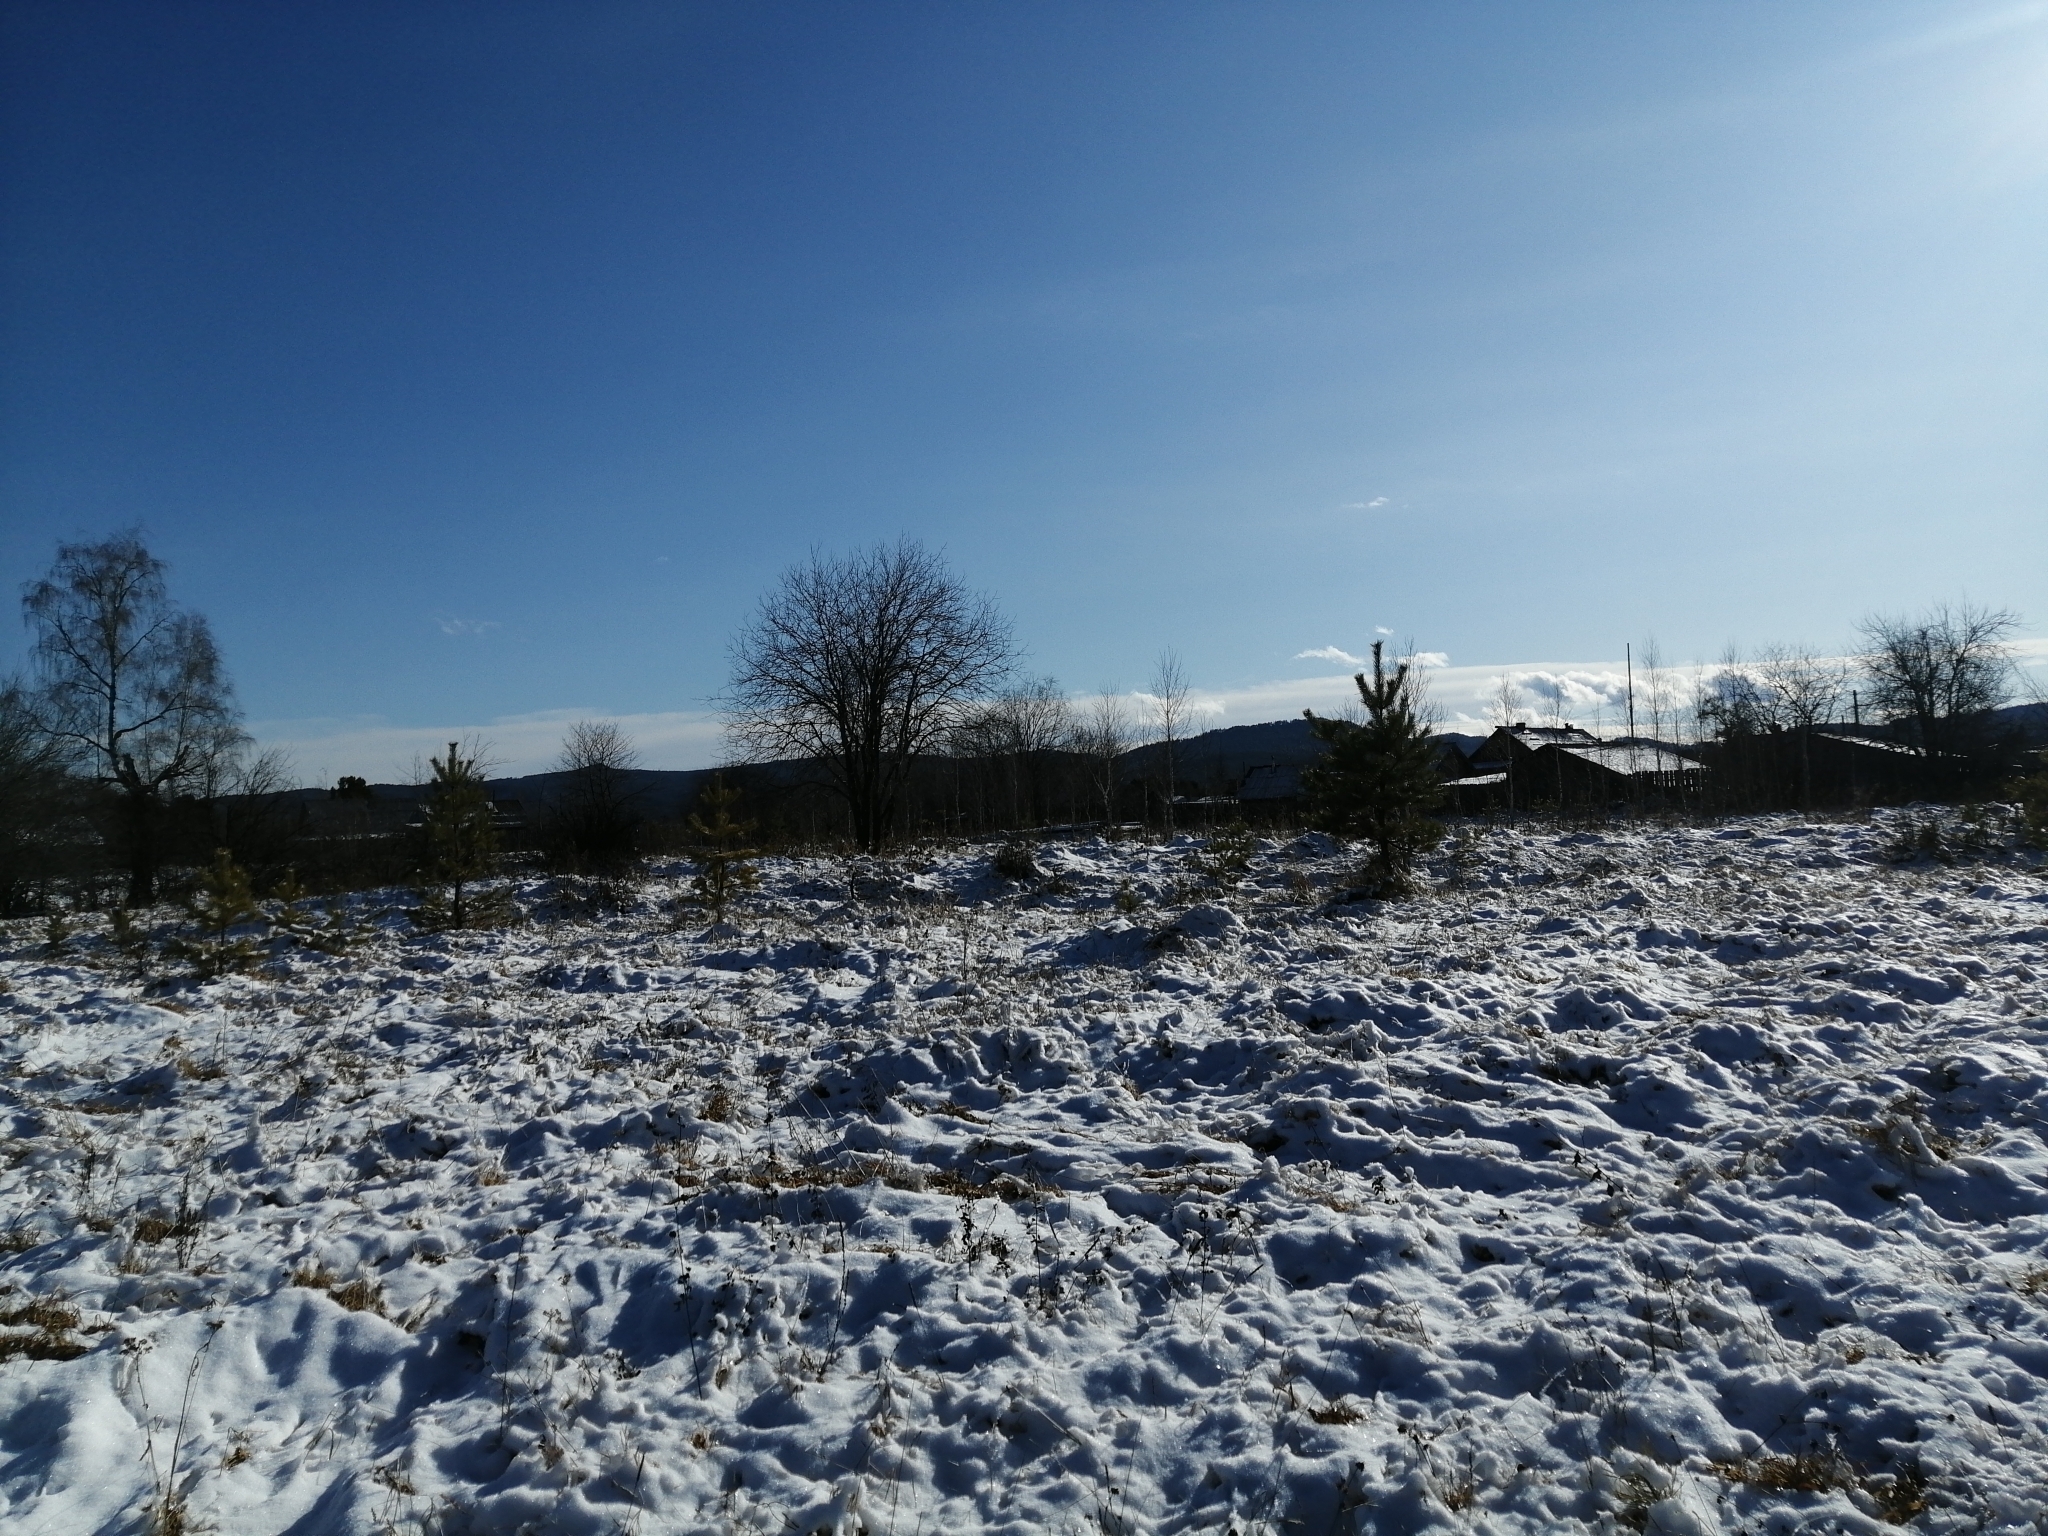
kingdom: Plantae
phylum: Tracheophyta
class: Pinopsida
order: Pinales
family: Pinaceae
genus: Pinus
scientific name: Pinus sylvestris
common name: Scots pine
